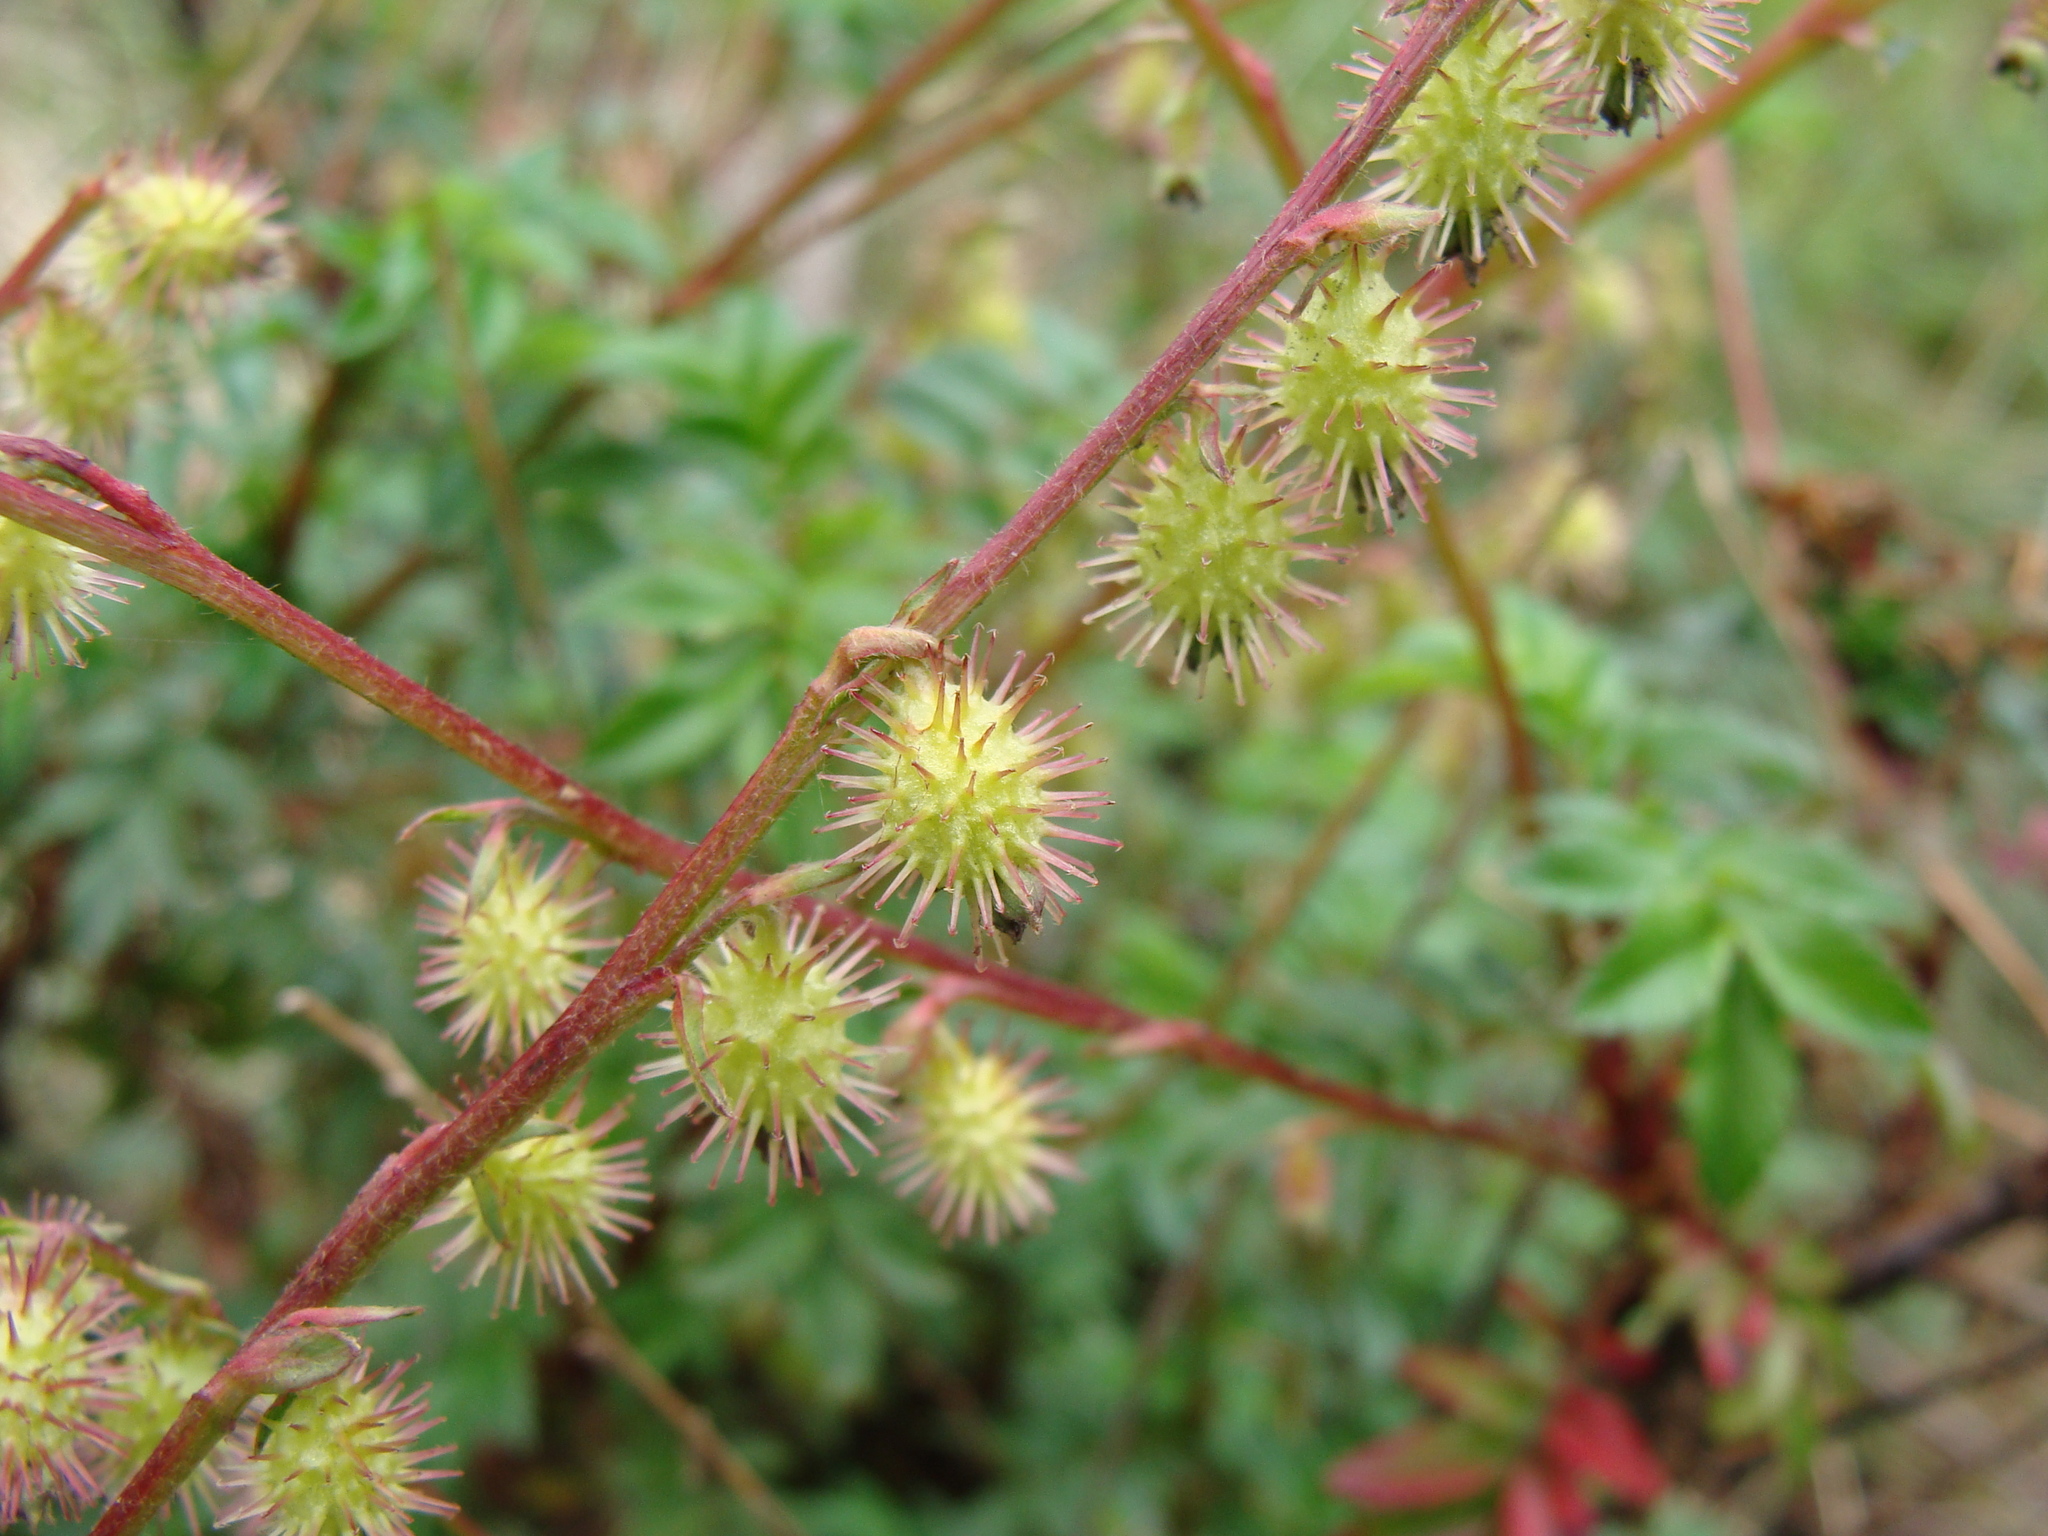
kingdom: Plantae
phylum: Tracheophyta
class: Magnoliopsida
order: Rosales
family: Rosaceae
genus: Acaena
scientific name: Acaena elongata
